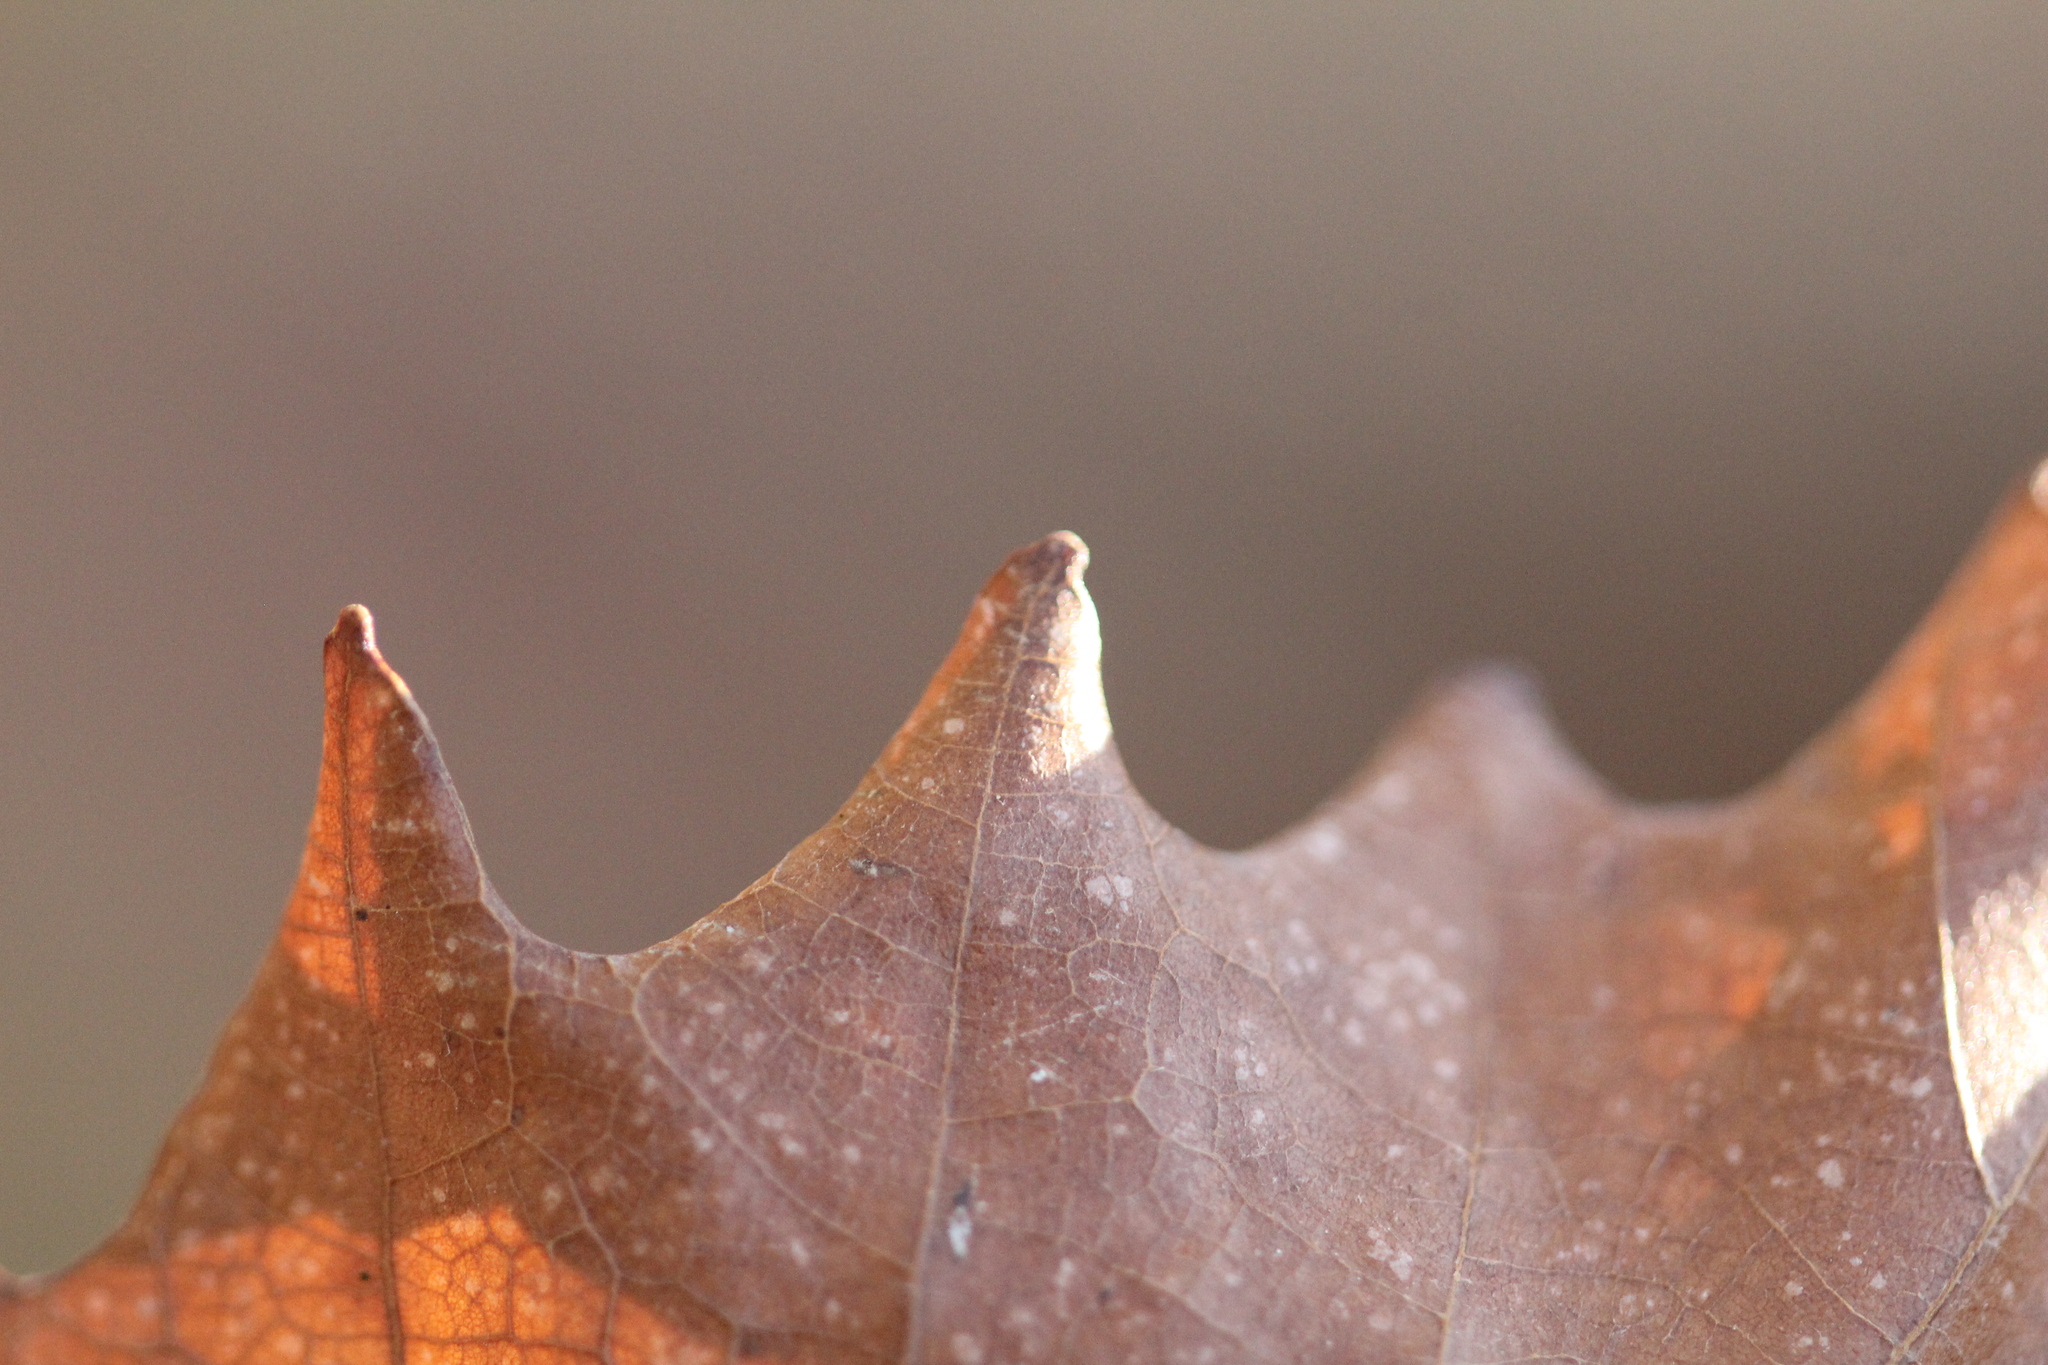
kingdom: Plantae
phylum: Tracheophyta
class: Magnoliopsida
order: Fagales
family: Fagaceae
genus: Quercus
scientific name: Quercus muehlenbergii
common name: Chinkapin oak
